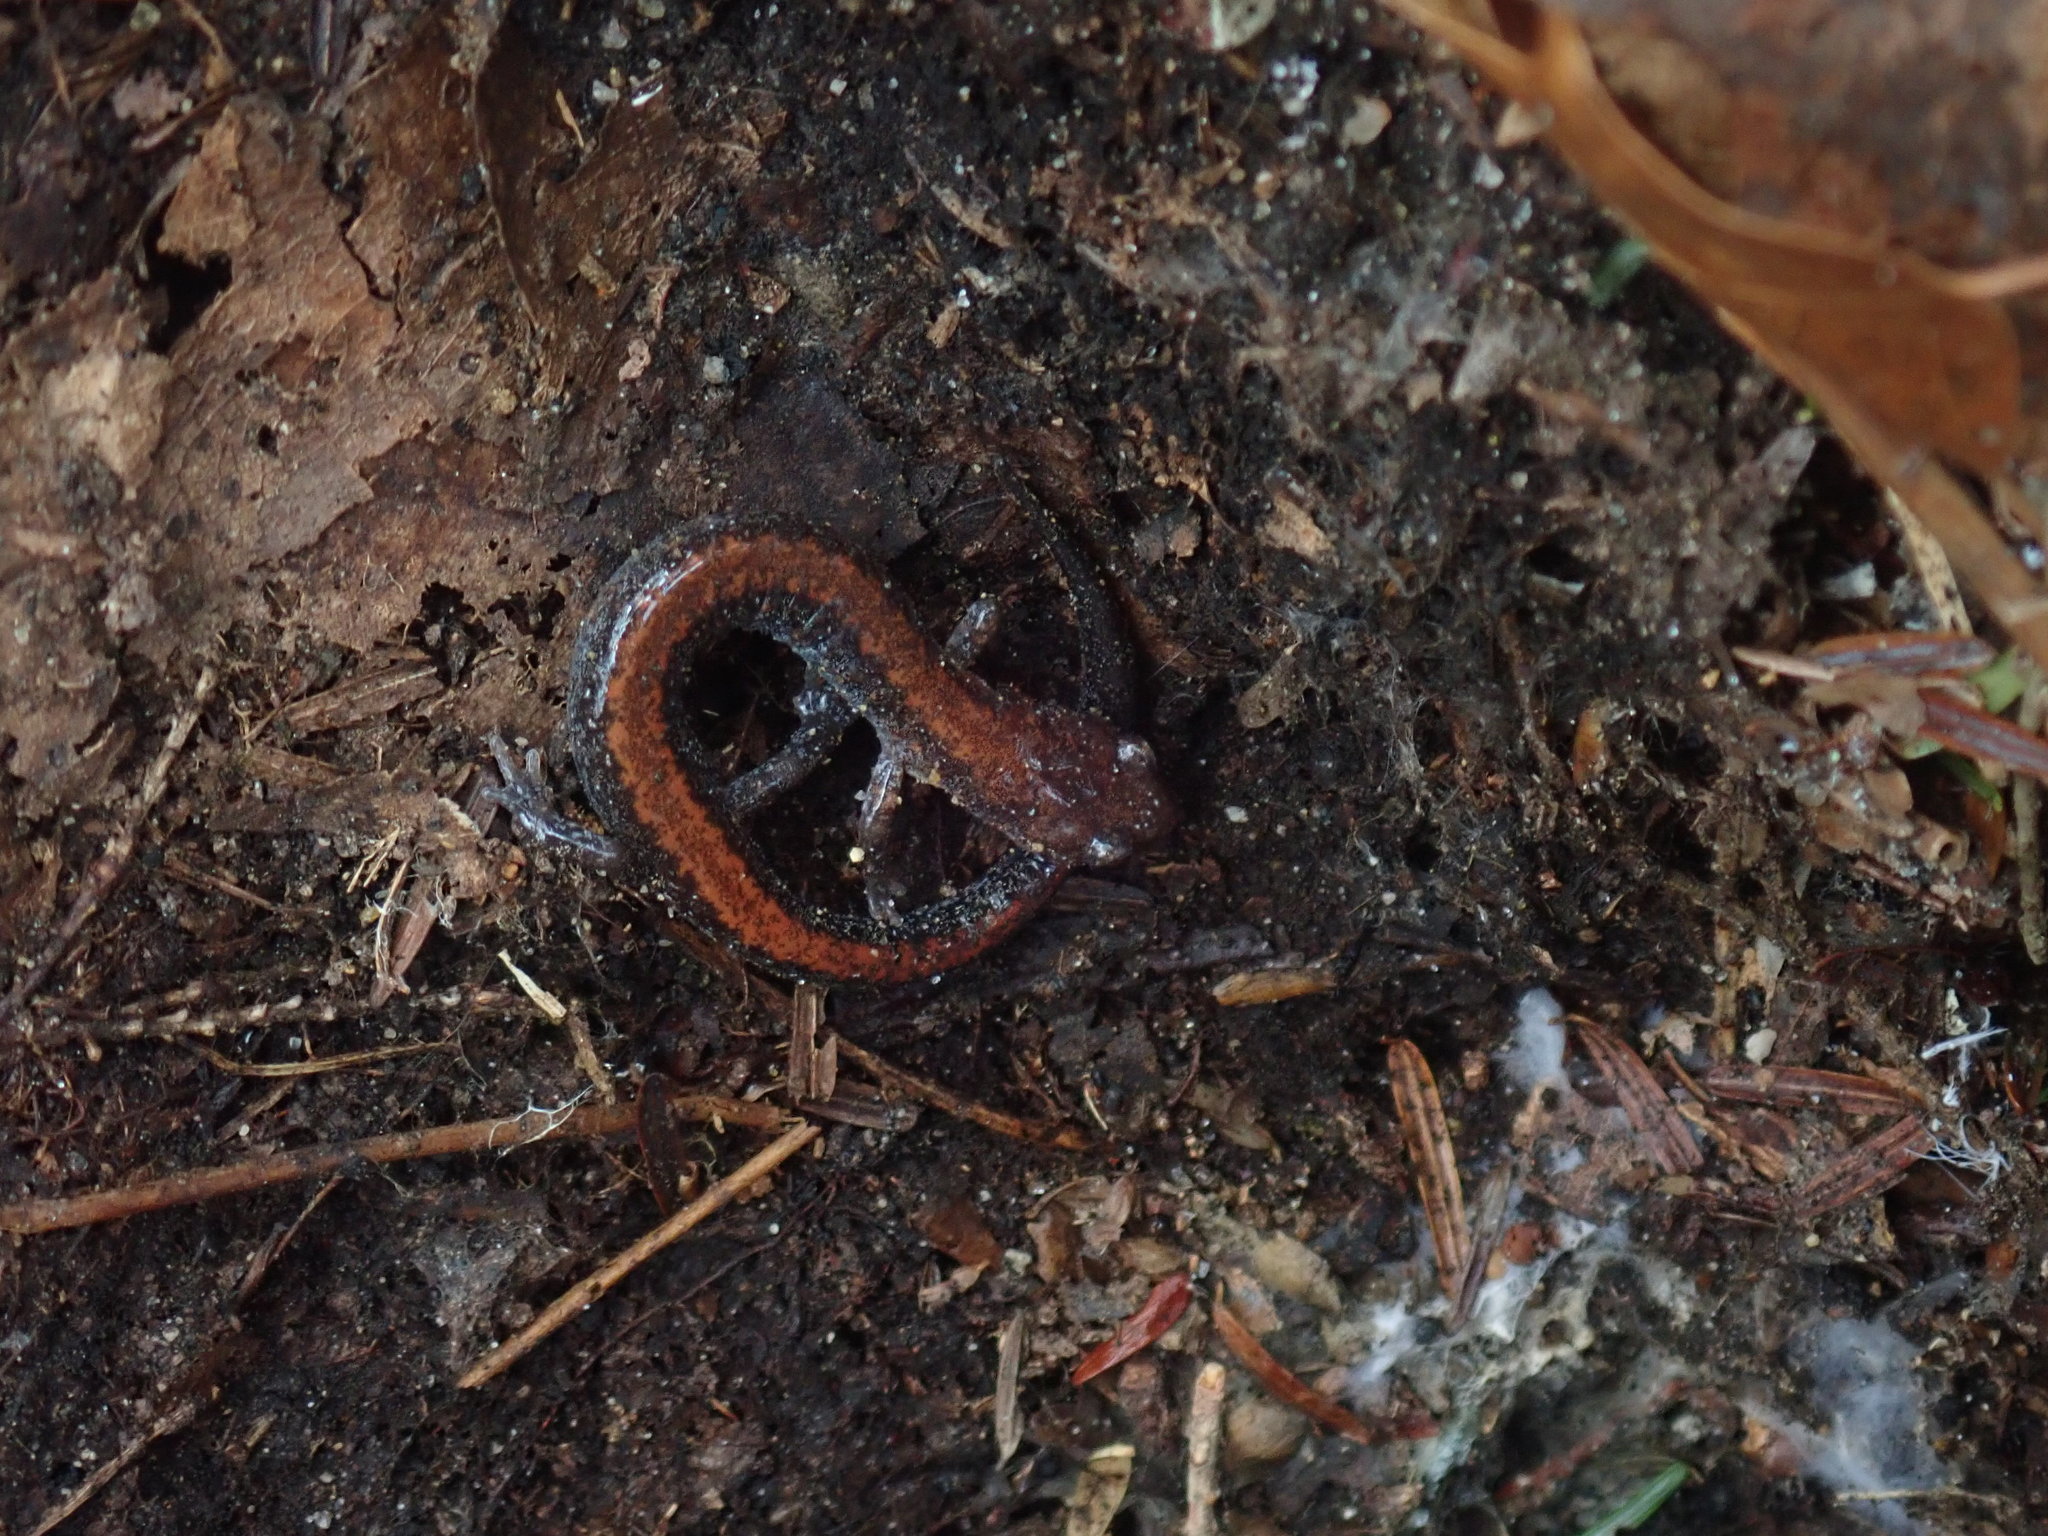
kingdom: Animalia
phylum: Chordata
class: Amphibia
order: Caudata
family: Plethodontidae
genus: Plethodon
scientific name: Plethodon cinereus
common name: Redback salamander
